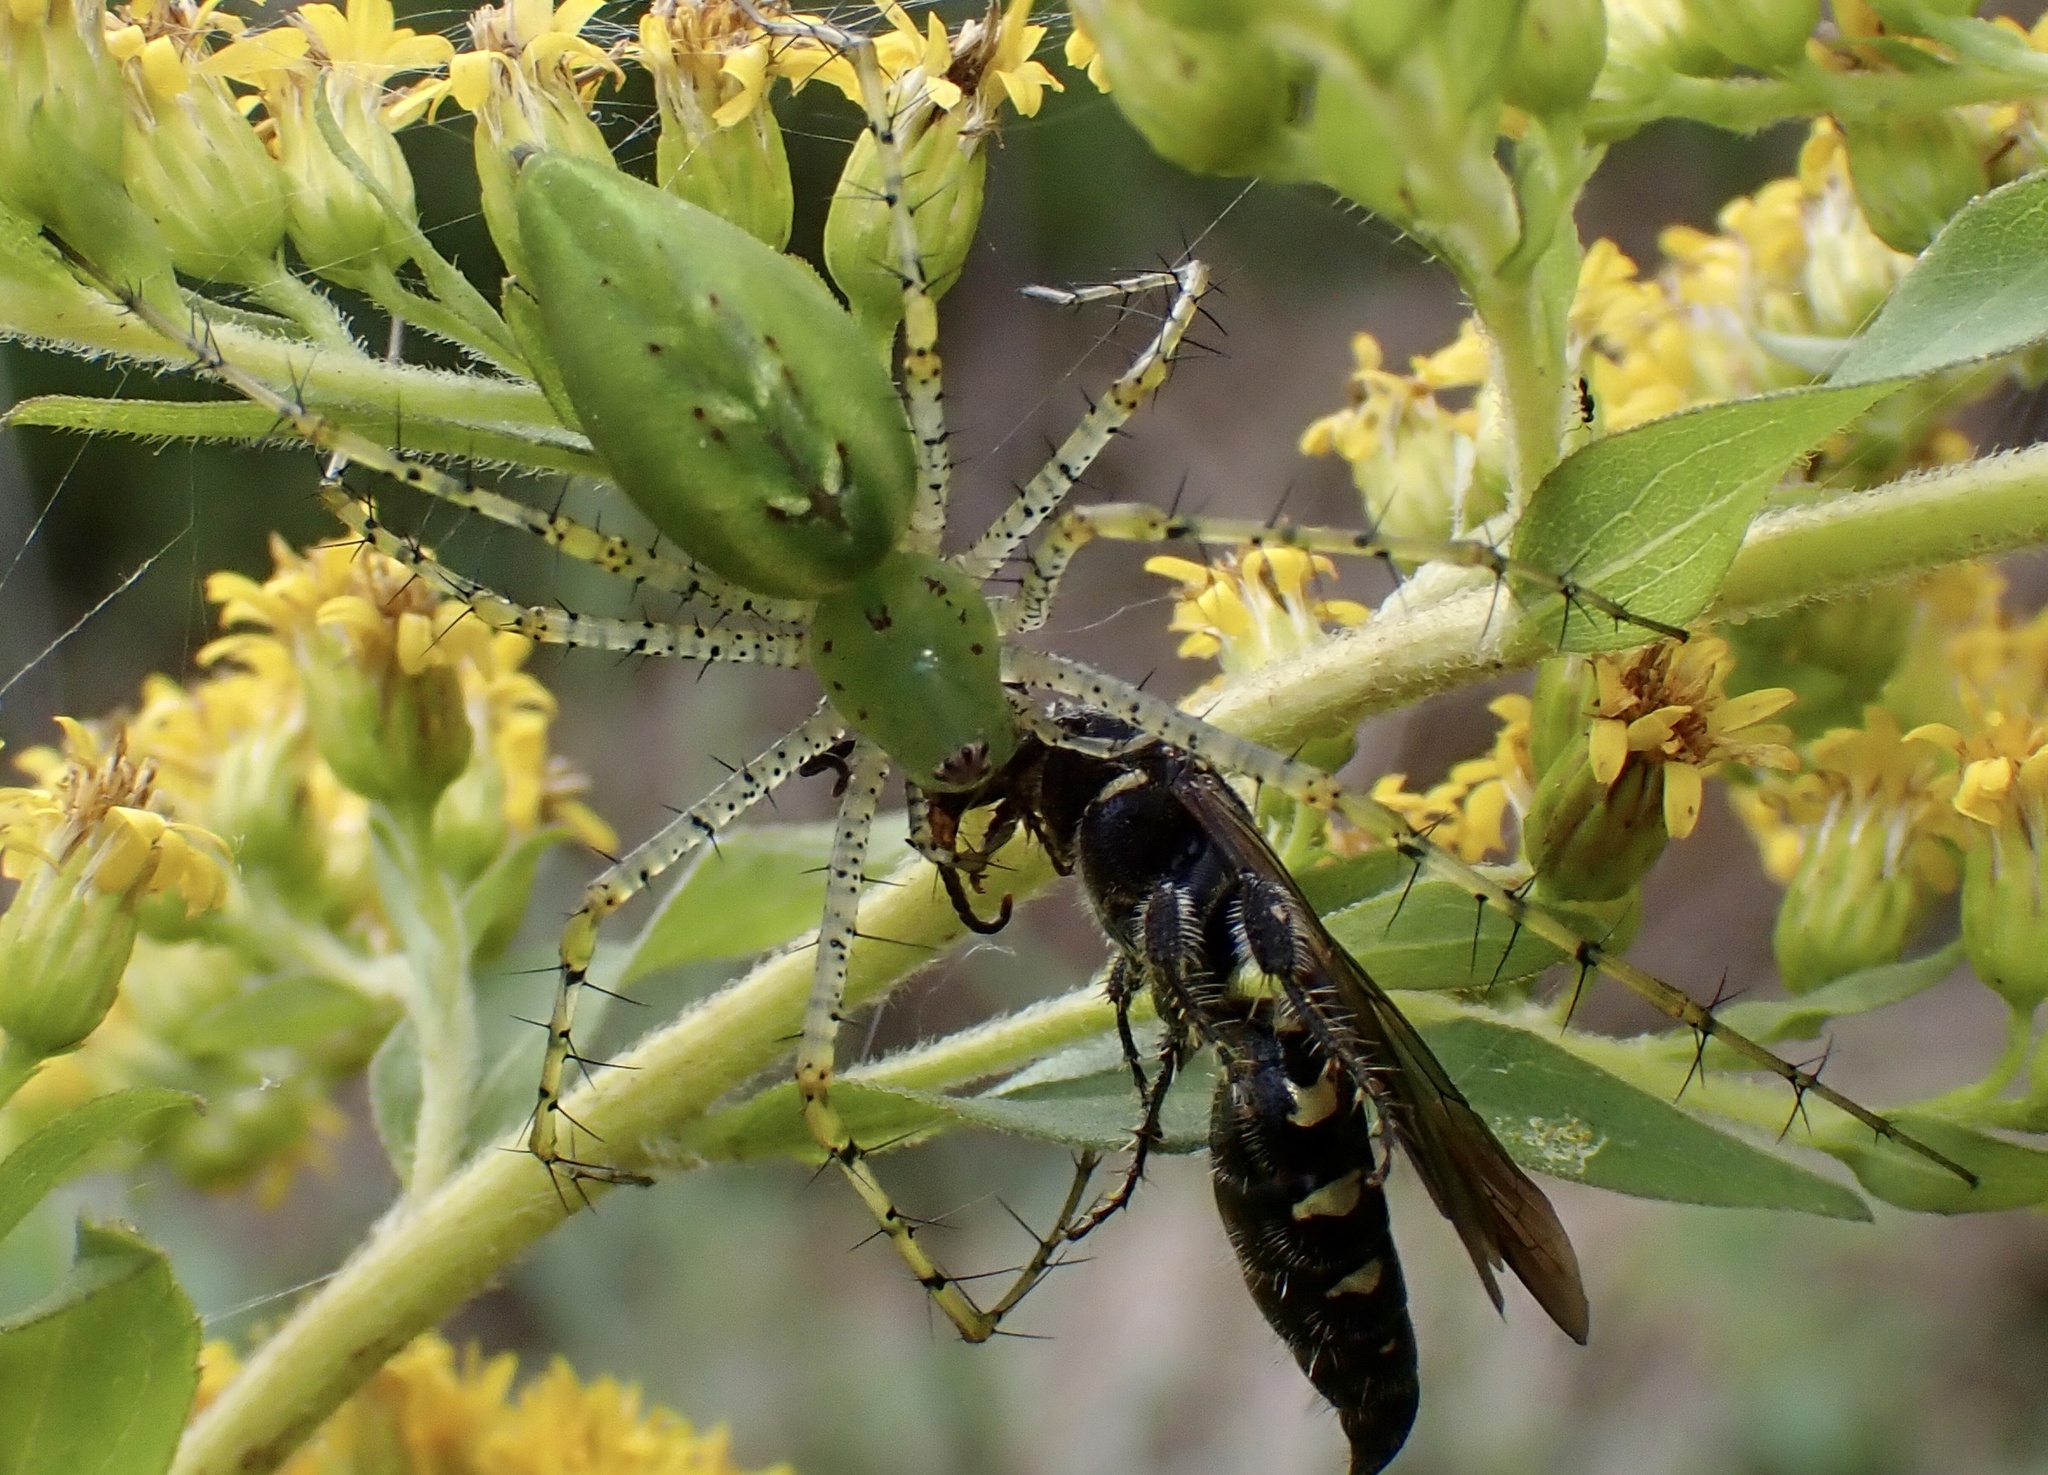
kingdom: Animalia
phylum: Arthropoda
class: Arachnida
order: Araneae
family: Oxyopidae
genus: Peucetia
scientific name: Peucetia viridans
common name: Lynx spiders
